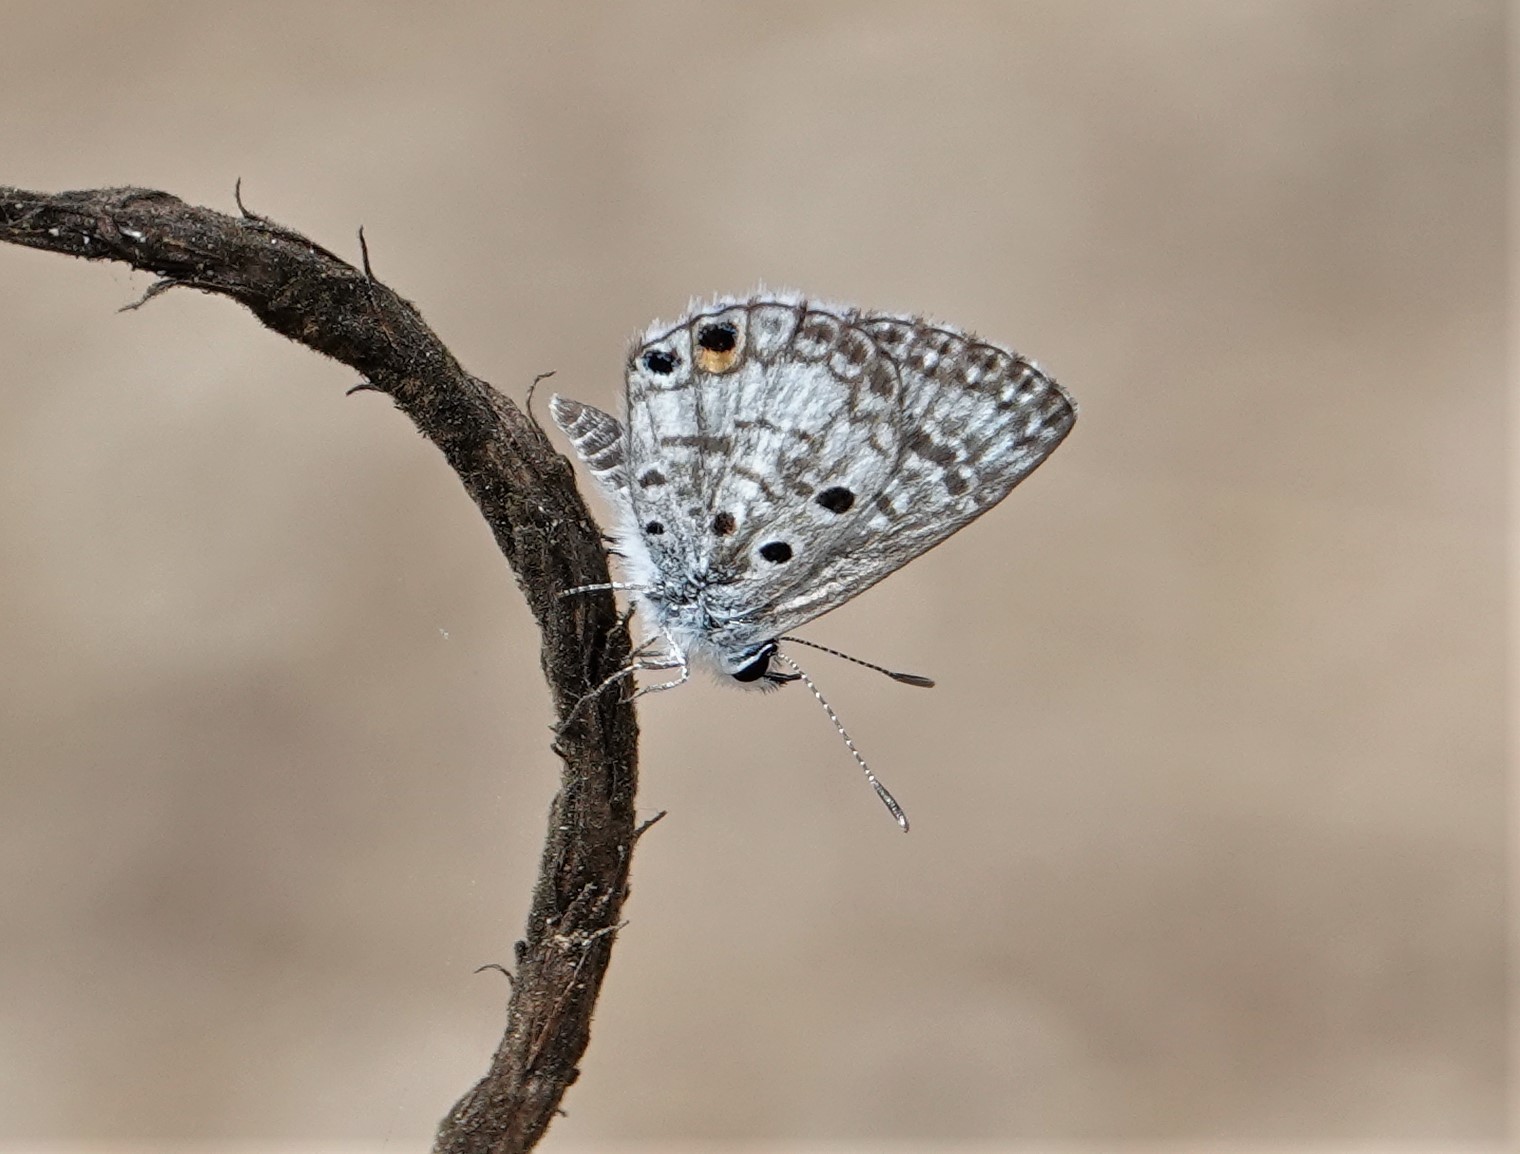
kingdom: Animalia
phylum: Arthropoda
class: Insecta
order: Lepidoptera
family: Lycaenidae
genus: Cyclargus
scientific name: Cyclargus thomasi
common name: Miami blue
